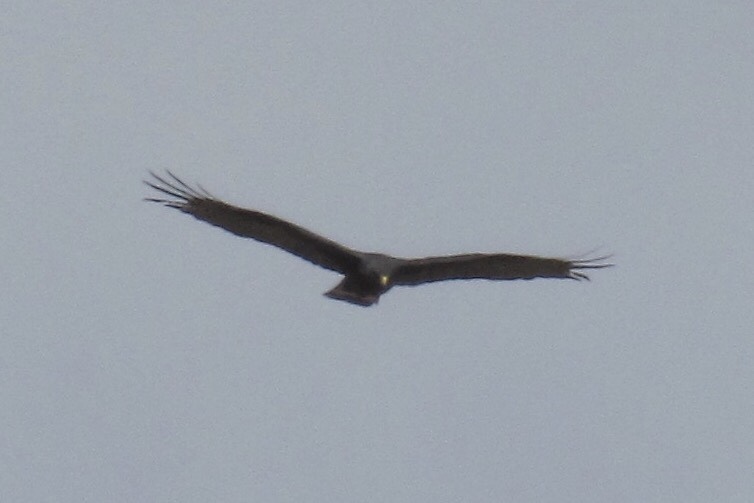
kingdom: Animalia
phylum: Chordata
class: Aves
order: Accipitriformes
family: Accipitridae
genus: Buteo
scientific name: Buteo albonotatus
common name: Zone-tailed hawk
